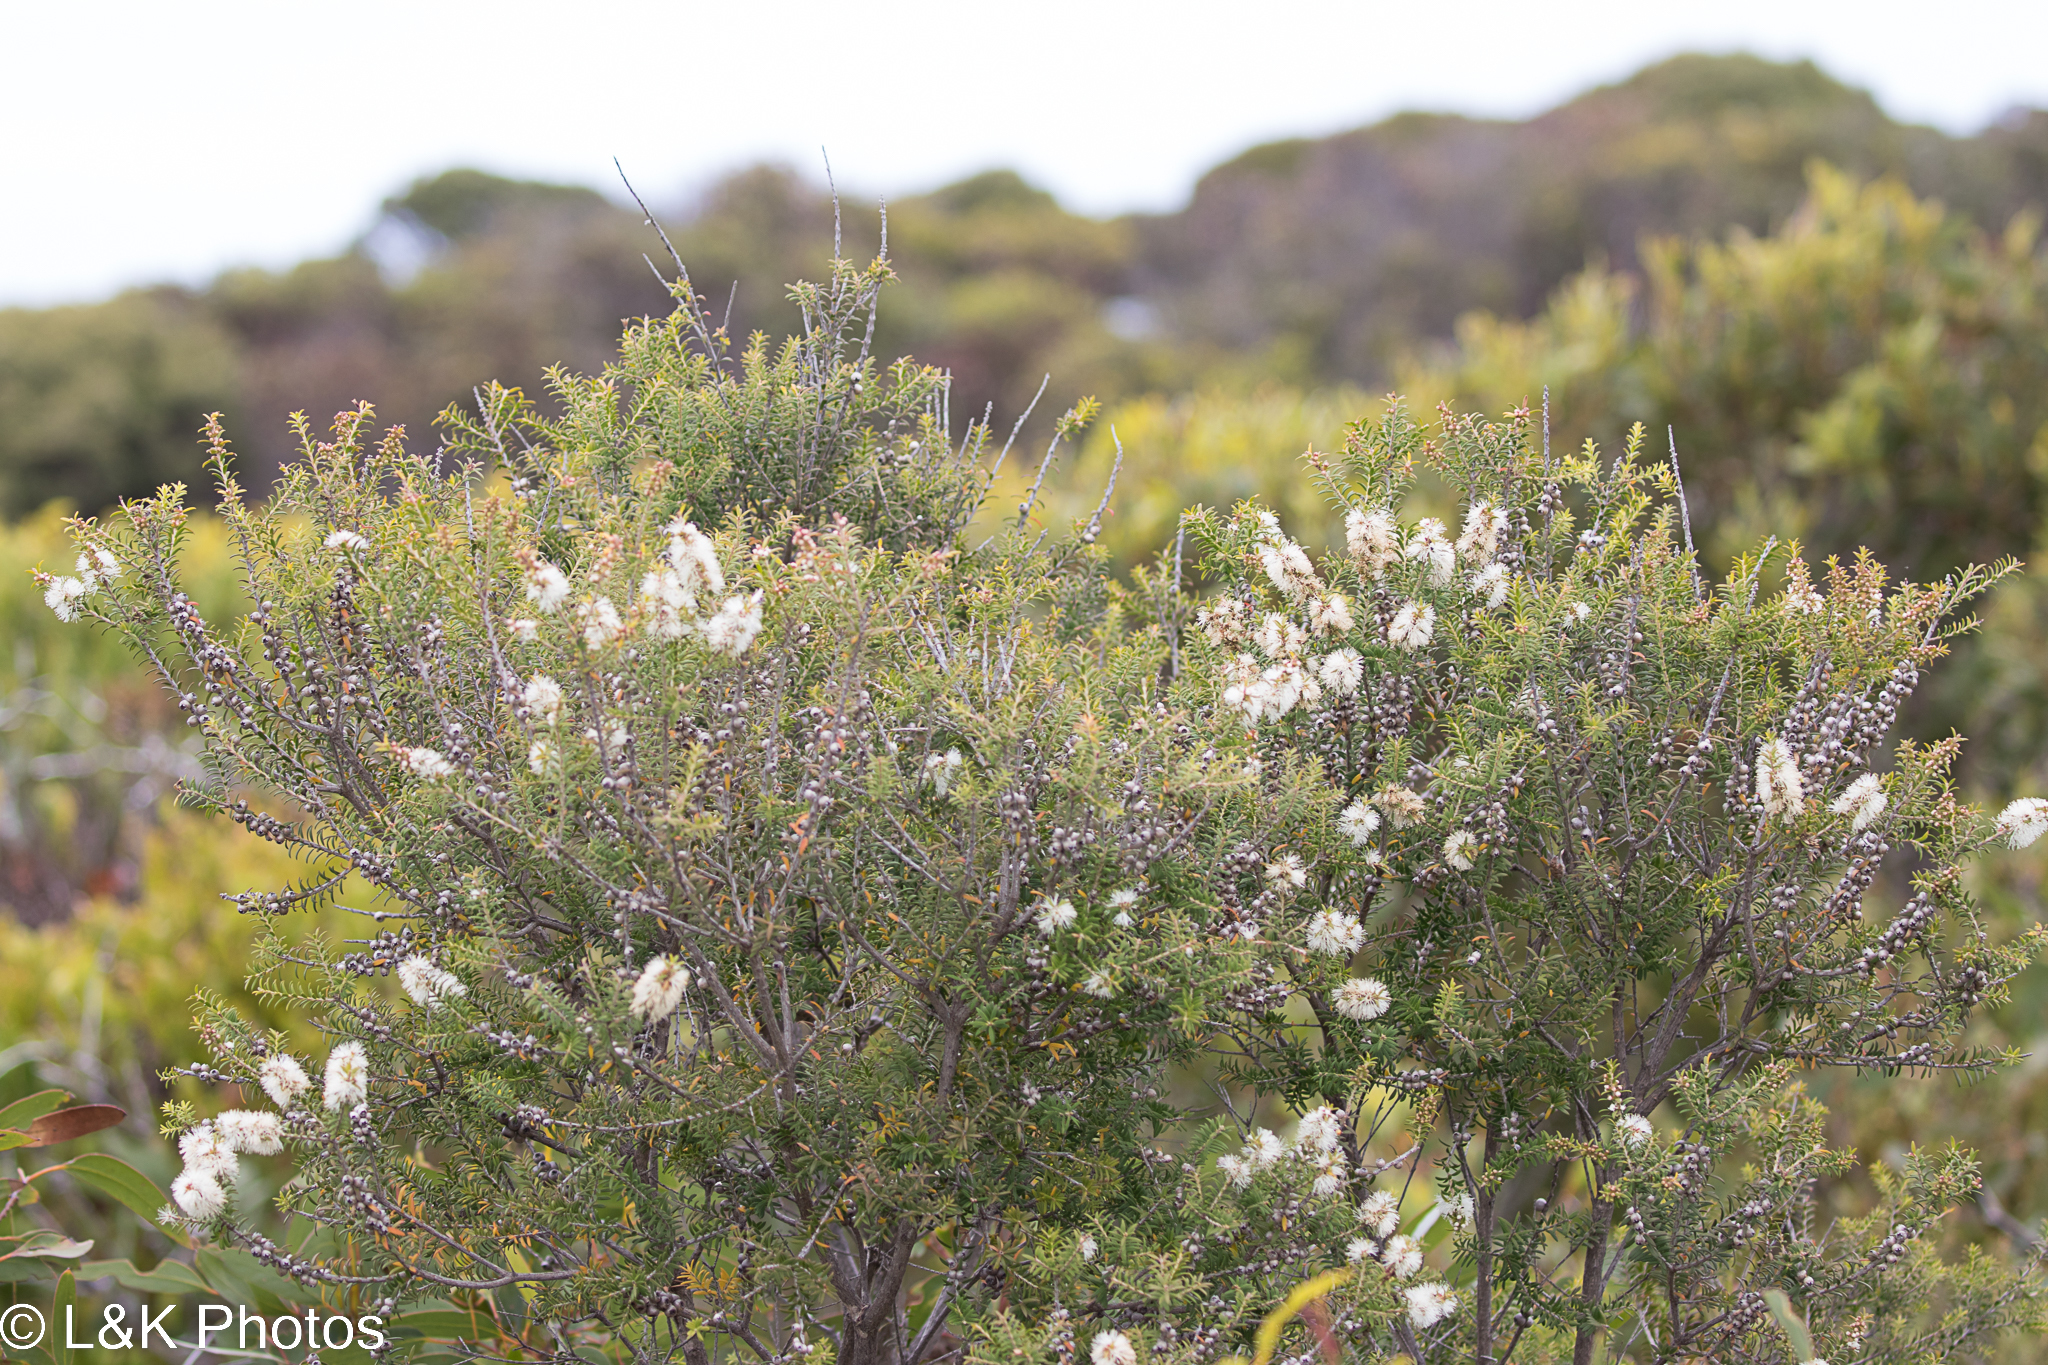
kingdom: Plantae
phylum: Tracheophyta
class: Magnoliopsida
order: Myrtales
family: Myrtaceae
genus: Melaleuca
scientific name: Melaleuca lanceolata
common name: Rottnest island teatree
